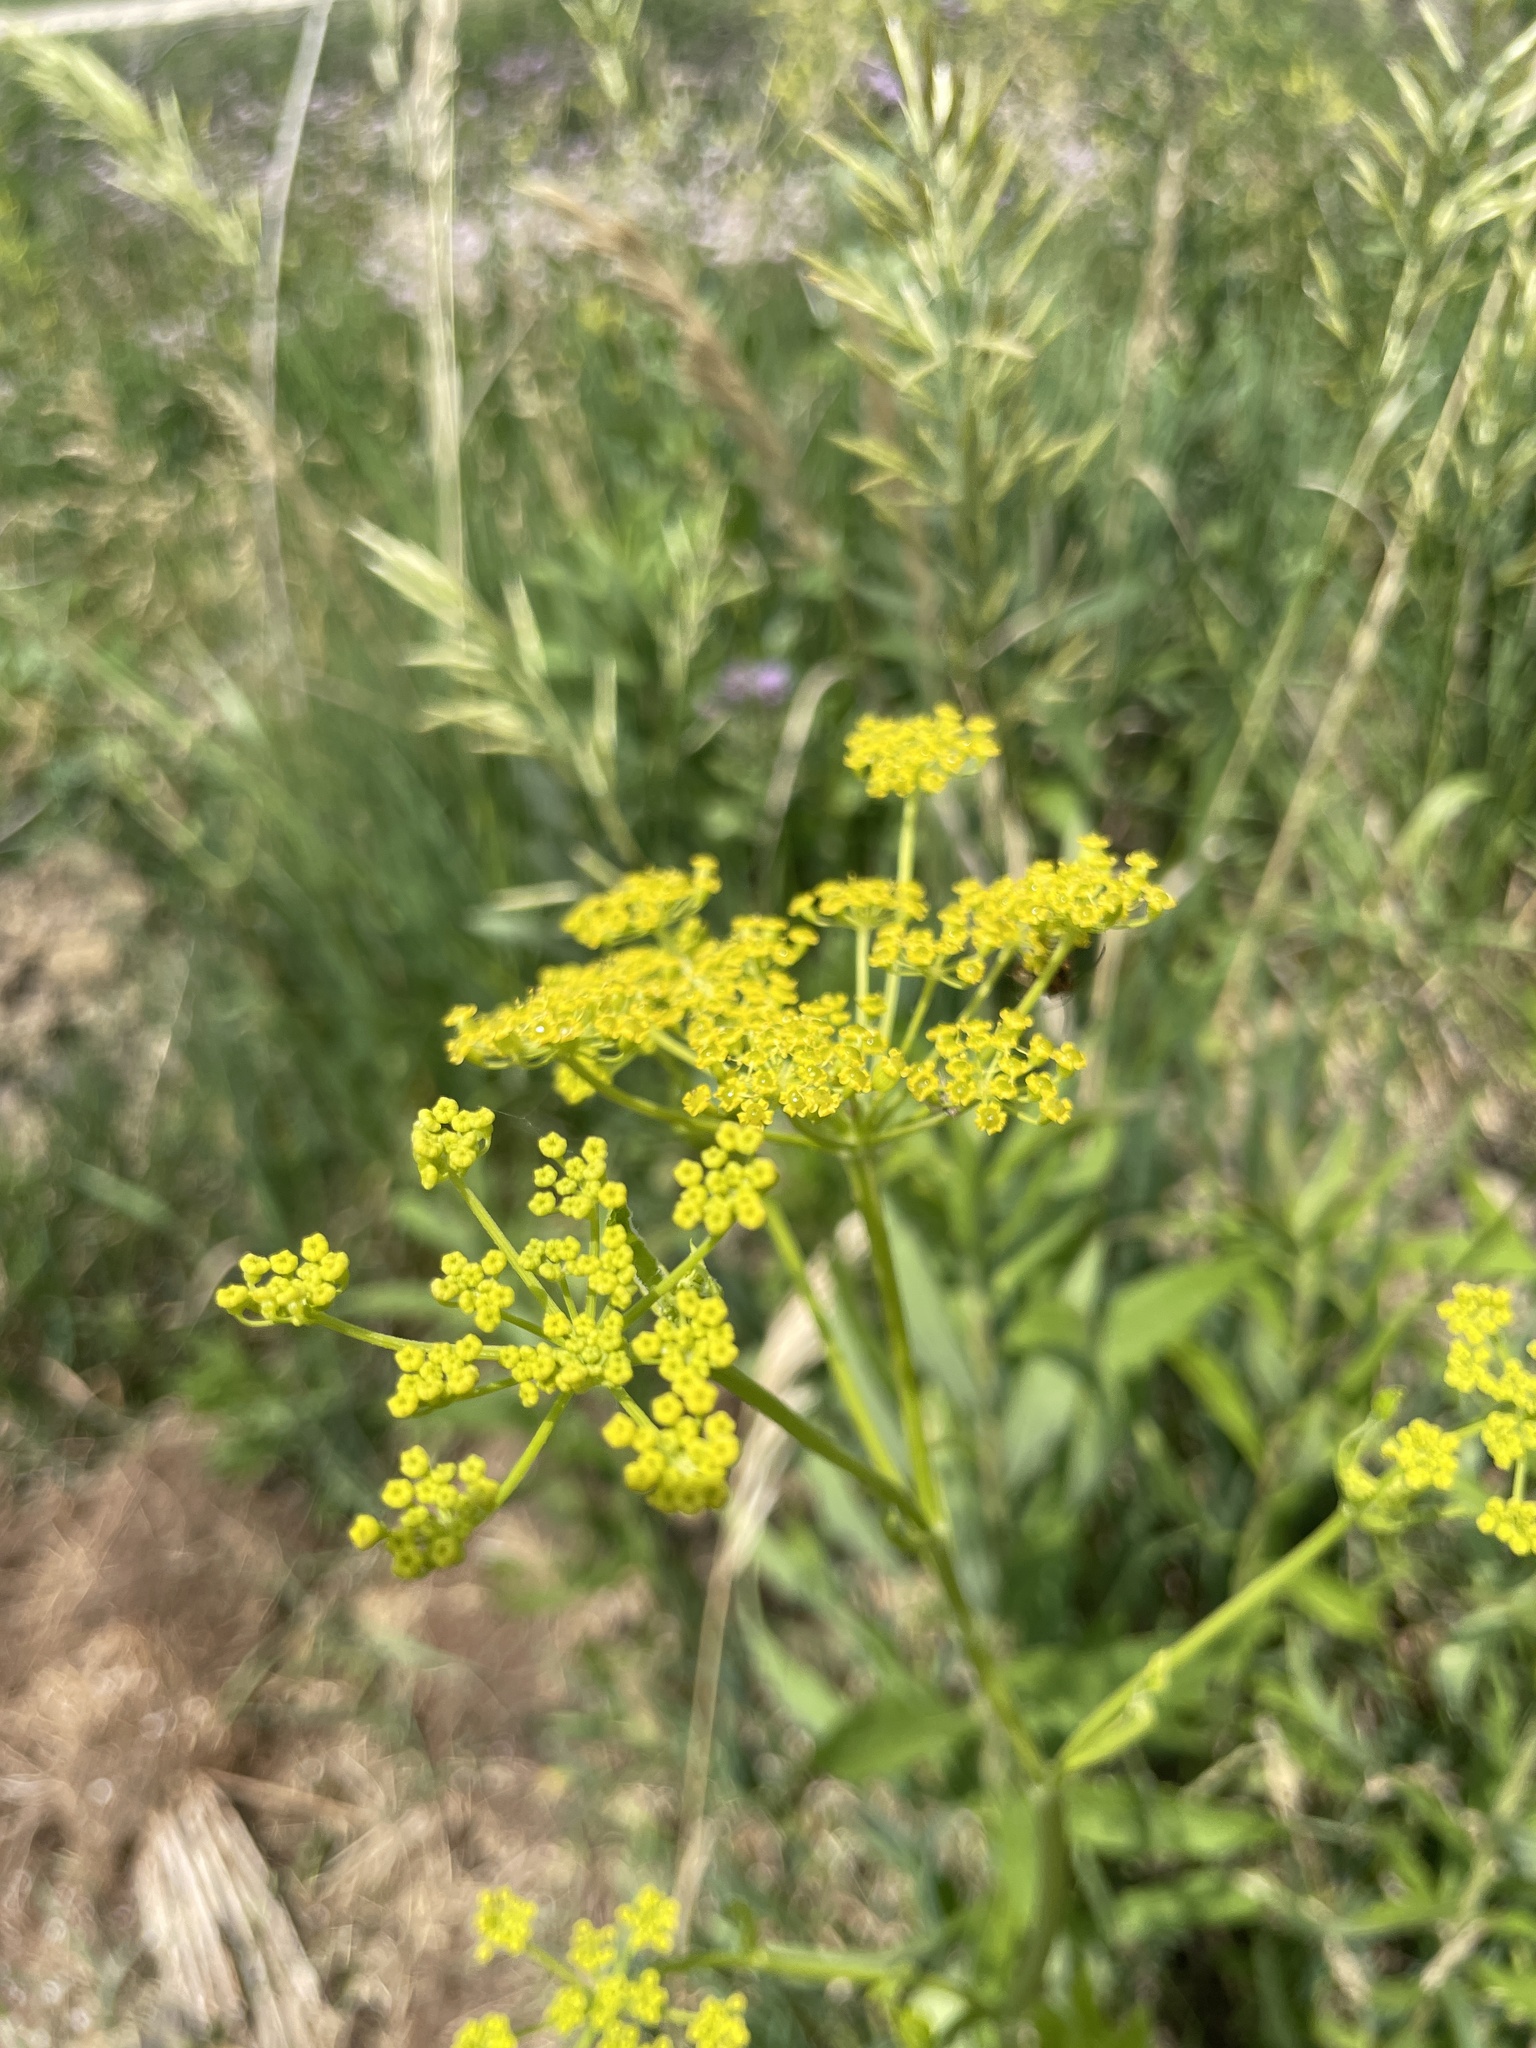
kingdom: Plantae
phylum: Tracheophyta
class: Magnoliopsida
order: Apiales
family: Apiaceae
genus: Pastinaca
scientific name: Pastinaca sativa
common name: Wild parsnip
